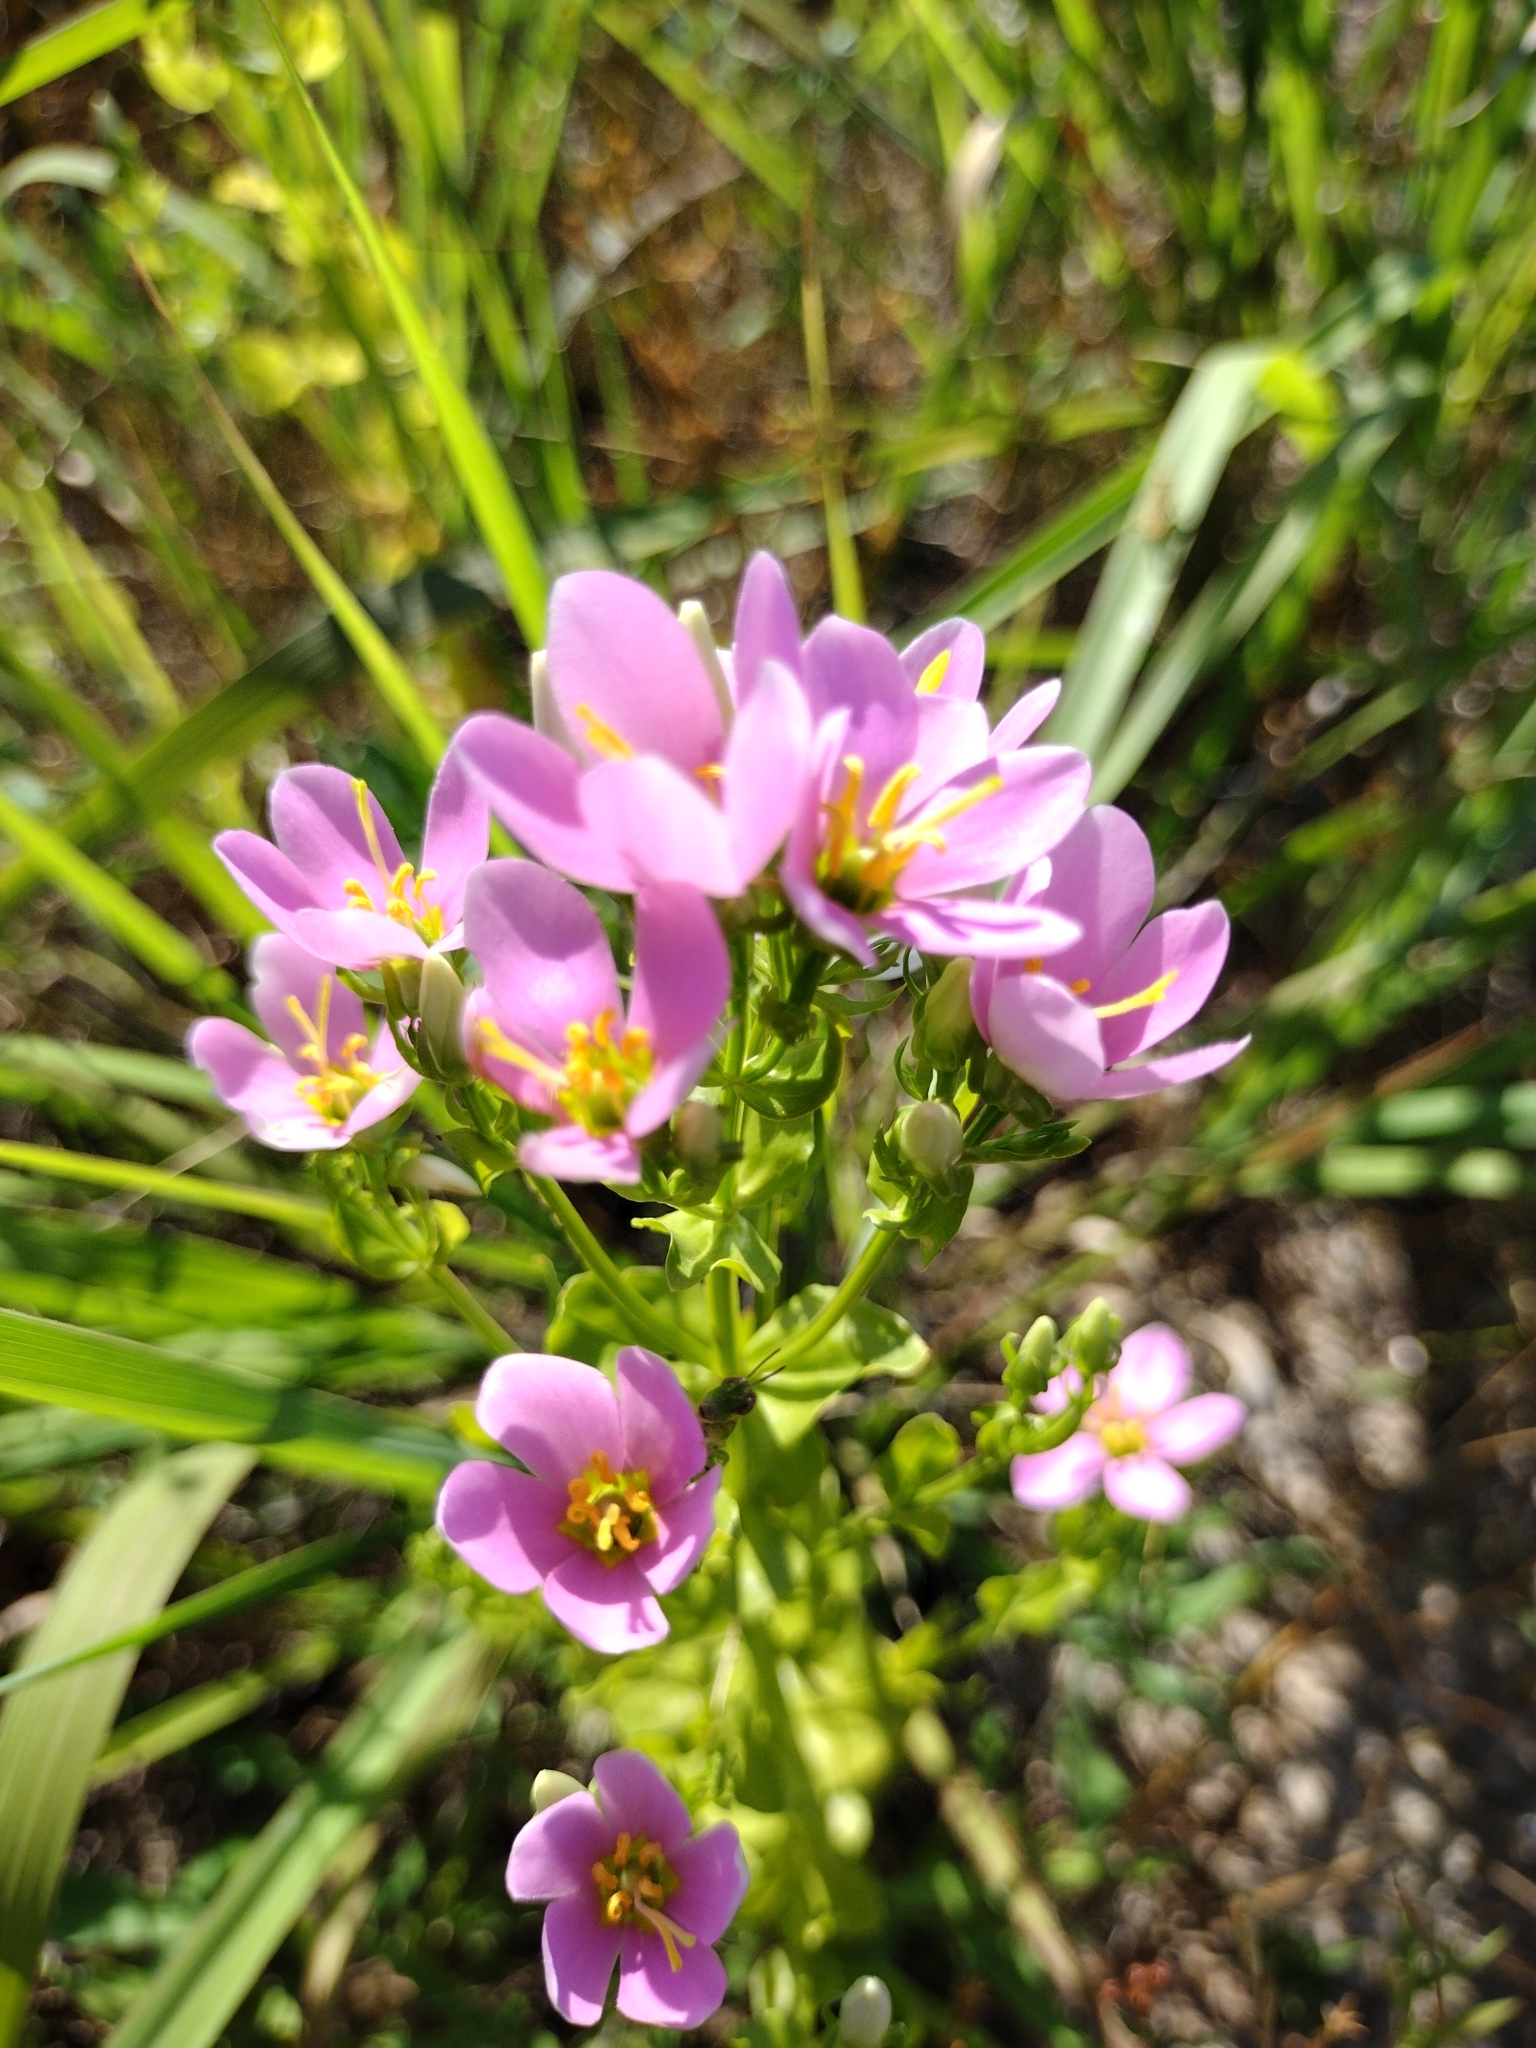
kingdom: Plantae
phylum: Tracheophyta
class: Magnoliopsida
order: Gentianales
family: Gentianaceae
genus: Sabatia
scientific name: Sabatia angularis
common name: Rose-pink
